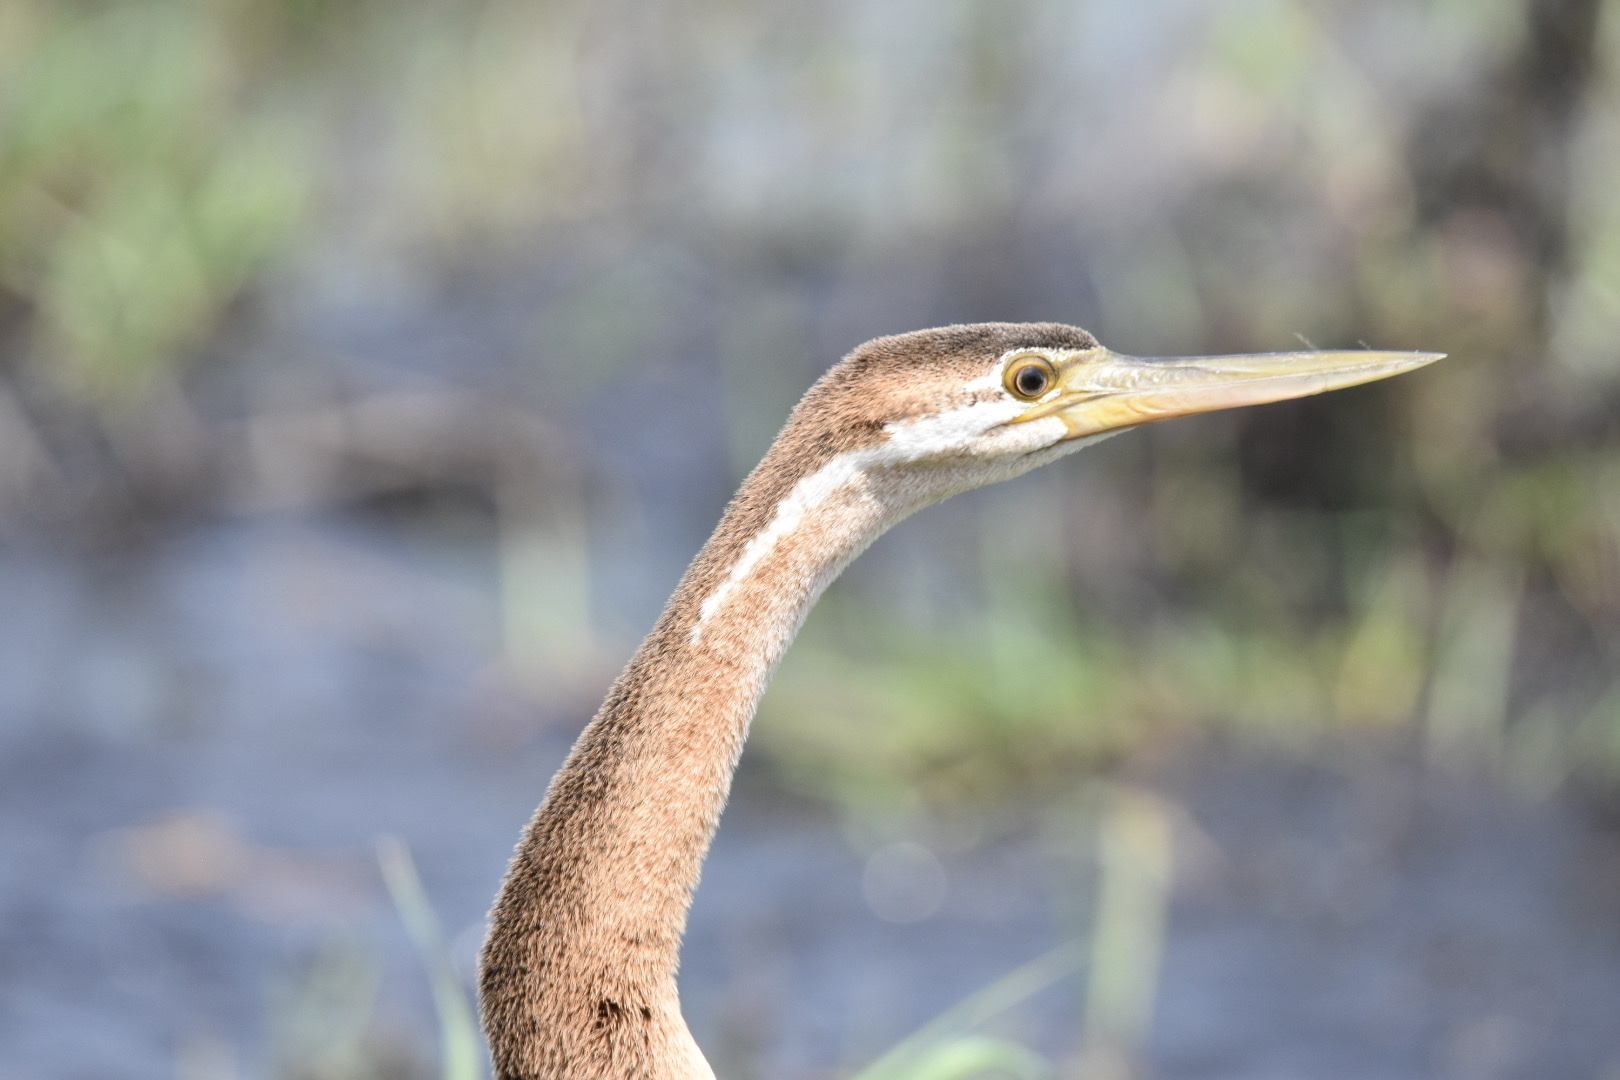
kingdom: Animalia
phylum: Chordata
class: Aves
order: Suliformes
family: Anhingidae
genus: Anhinga
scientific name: Anhinga rufa
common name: African darter
